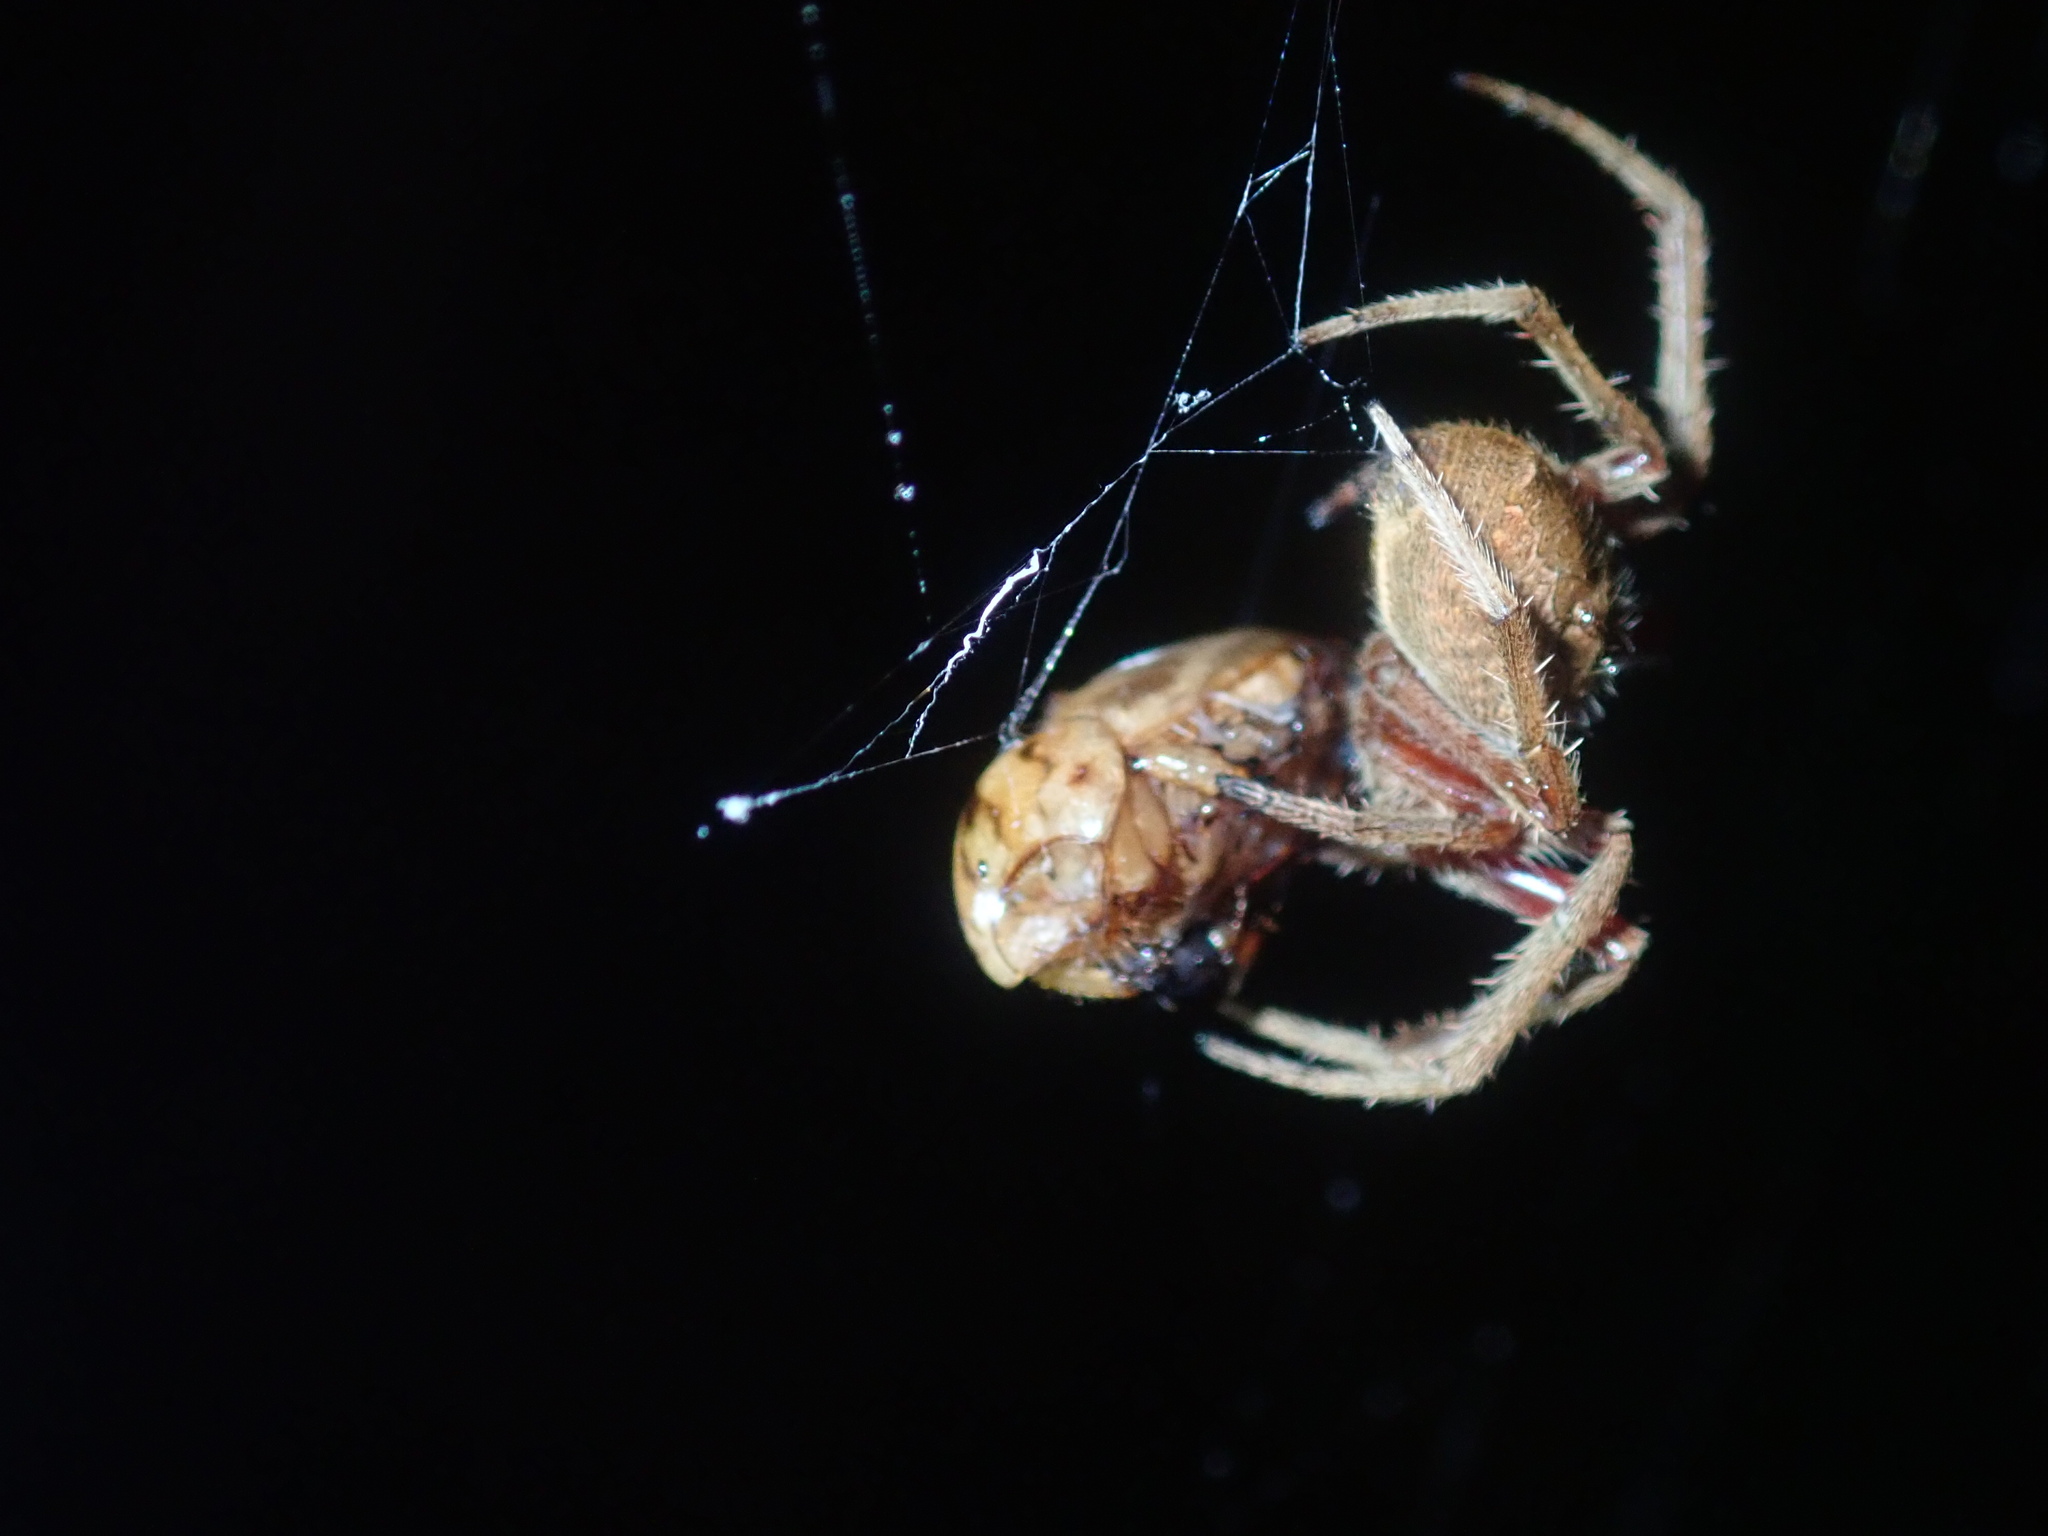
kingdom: Animalia
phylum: Arthropoda
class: Insecta
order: Coleoptera
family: Scarabaeidae
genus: Cyclocephala
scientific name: Cyclocephala signaticollis
